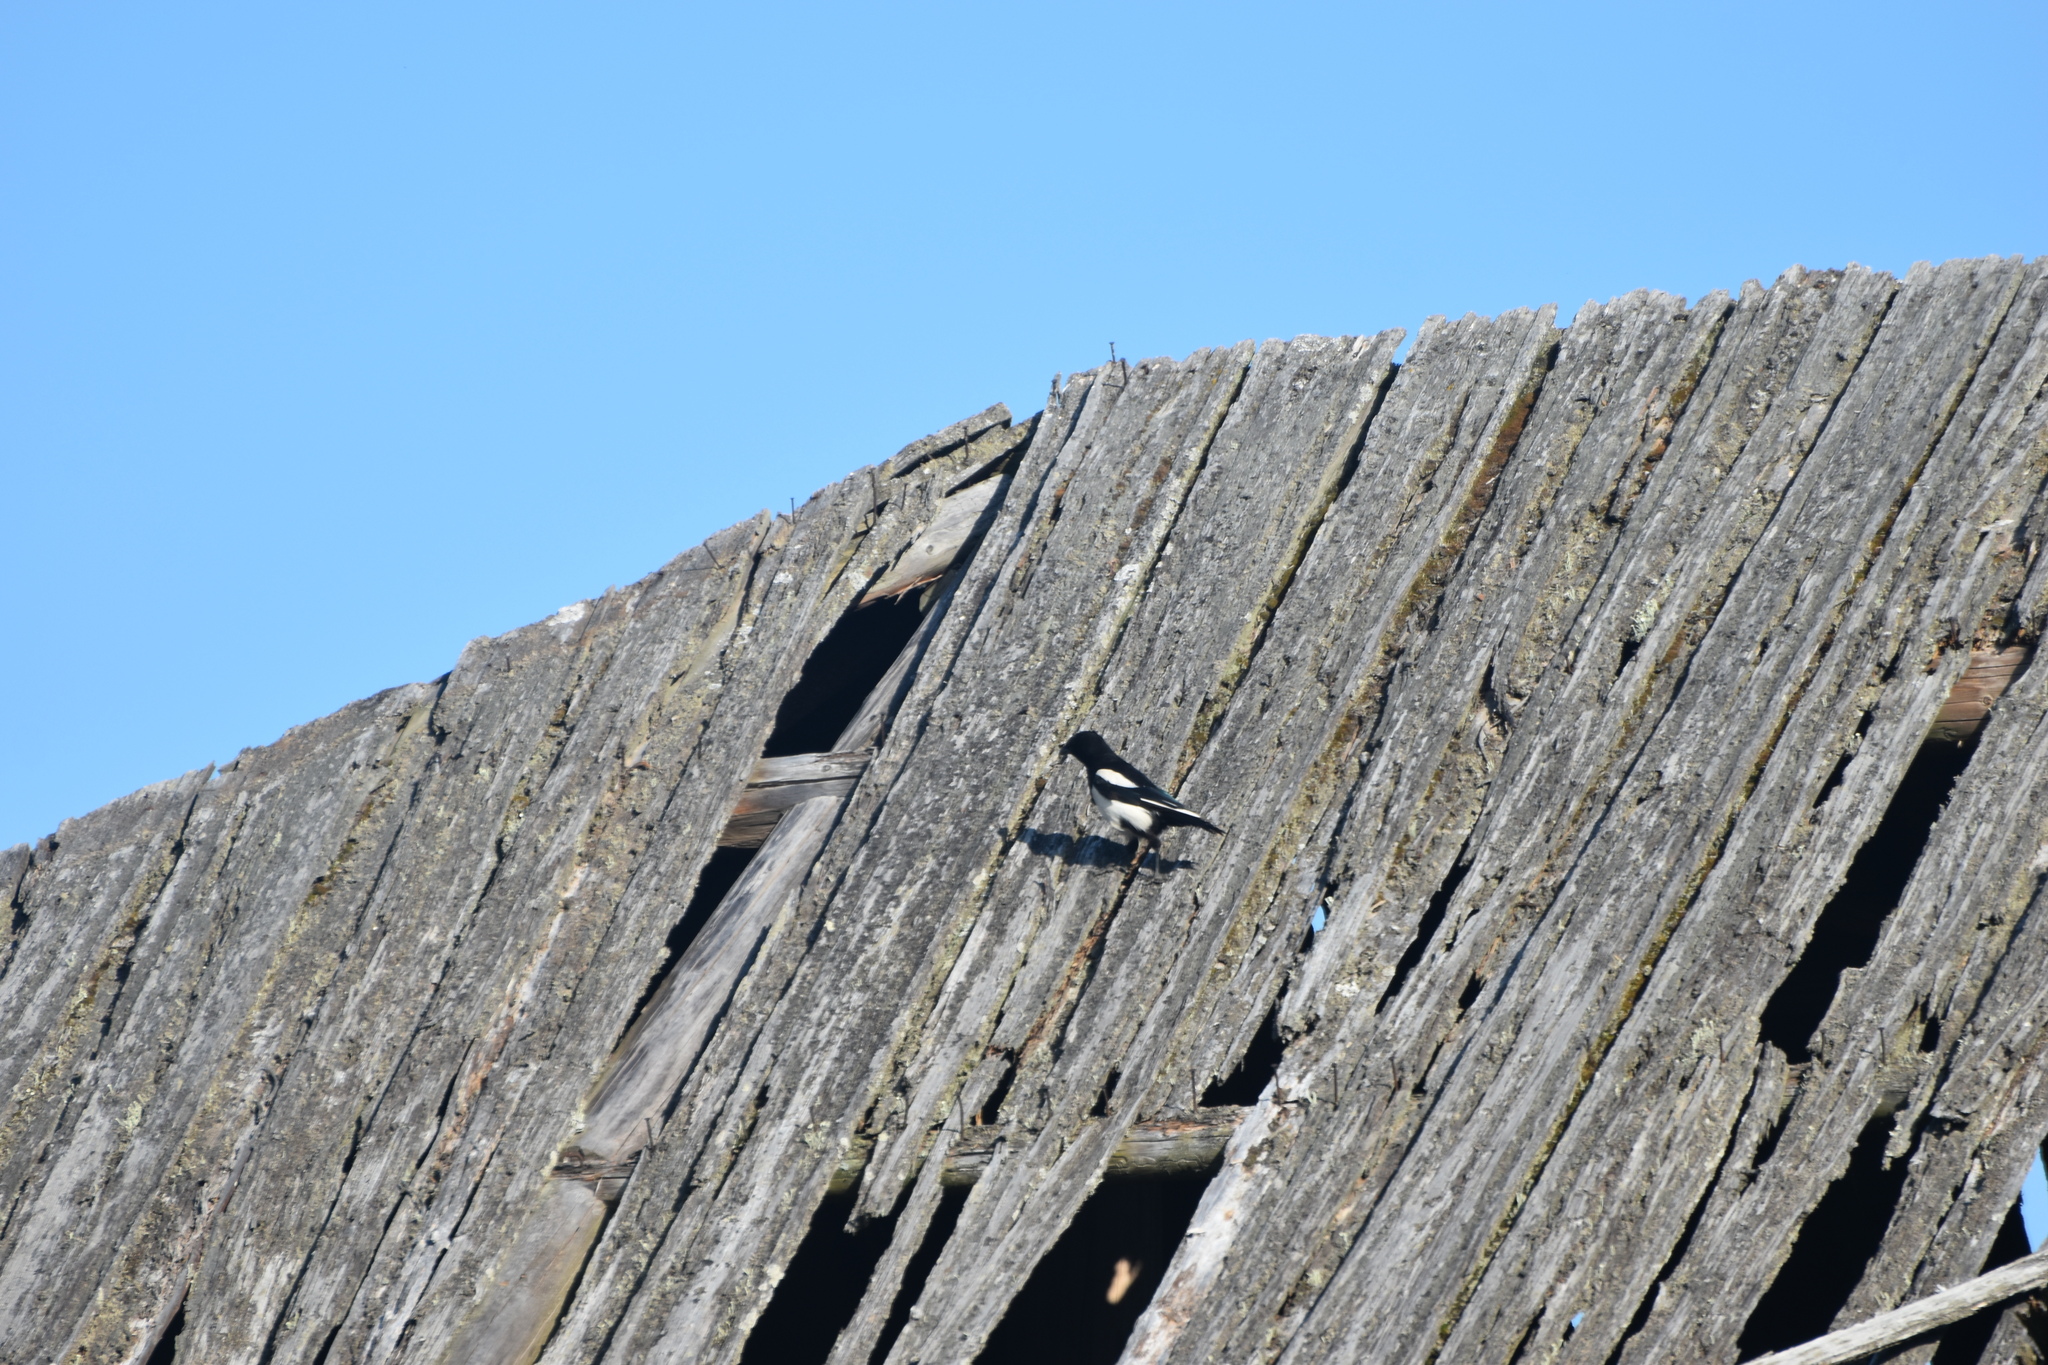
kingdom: Animalia
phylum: Chordata
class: Aves
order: Passeriformes
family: Corvidae
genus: Pica
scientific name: Pica pica
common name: Eurasian magpie
